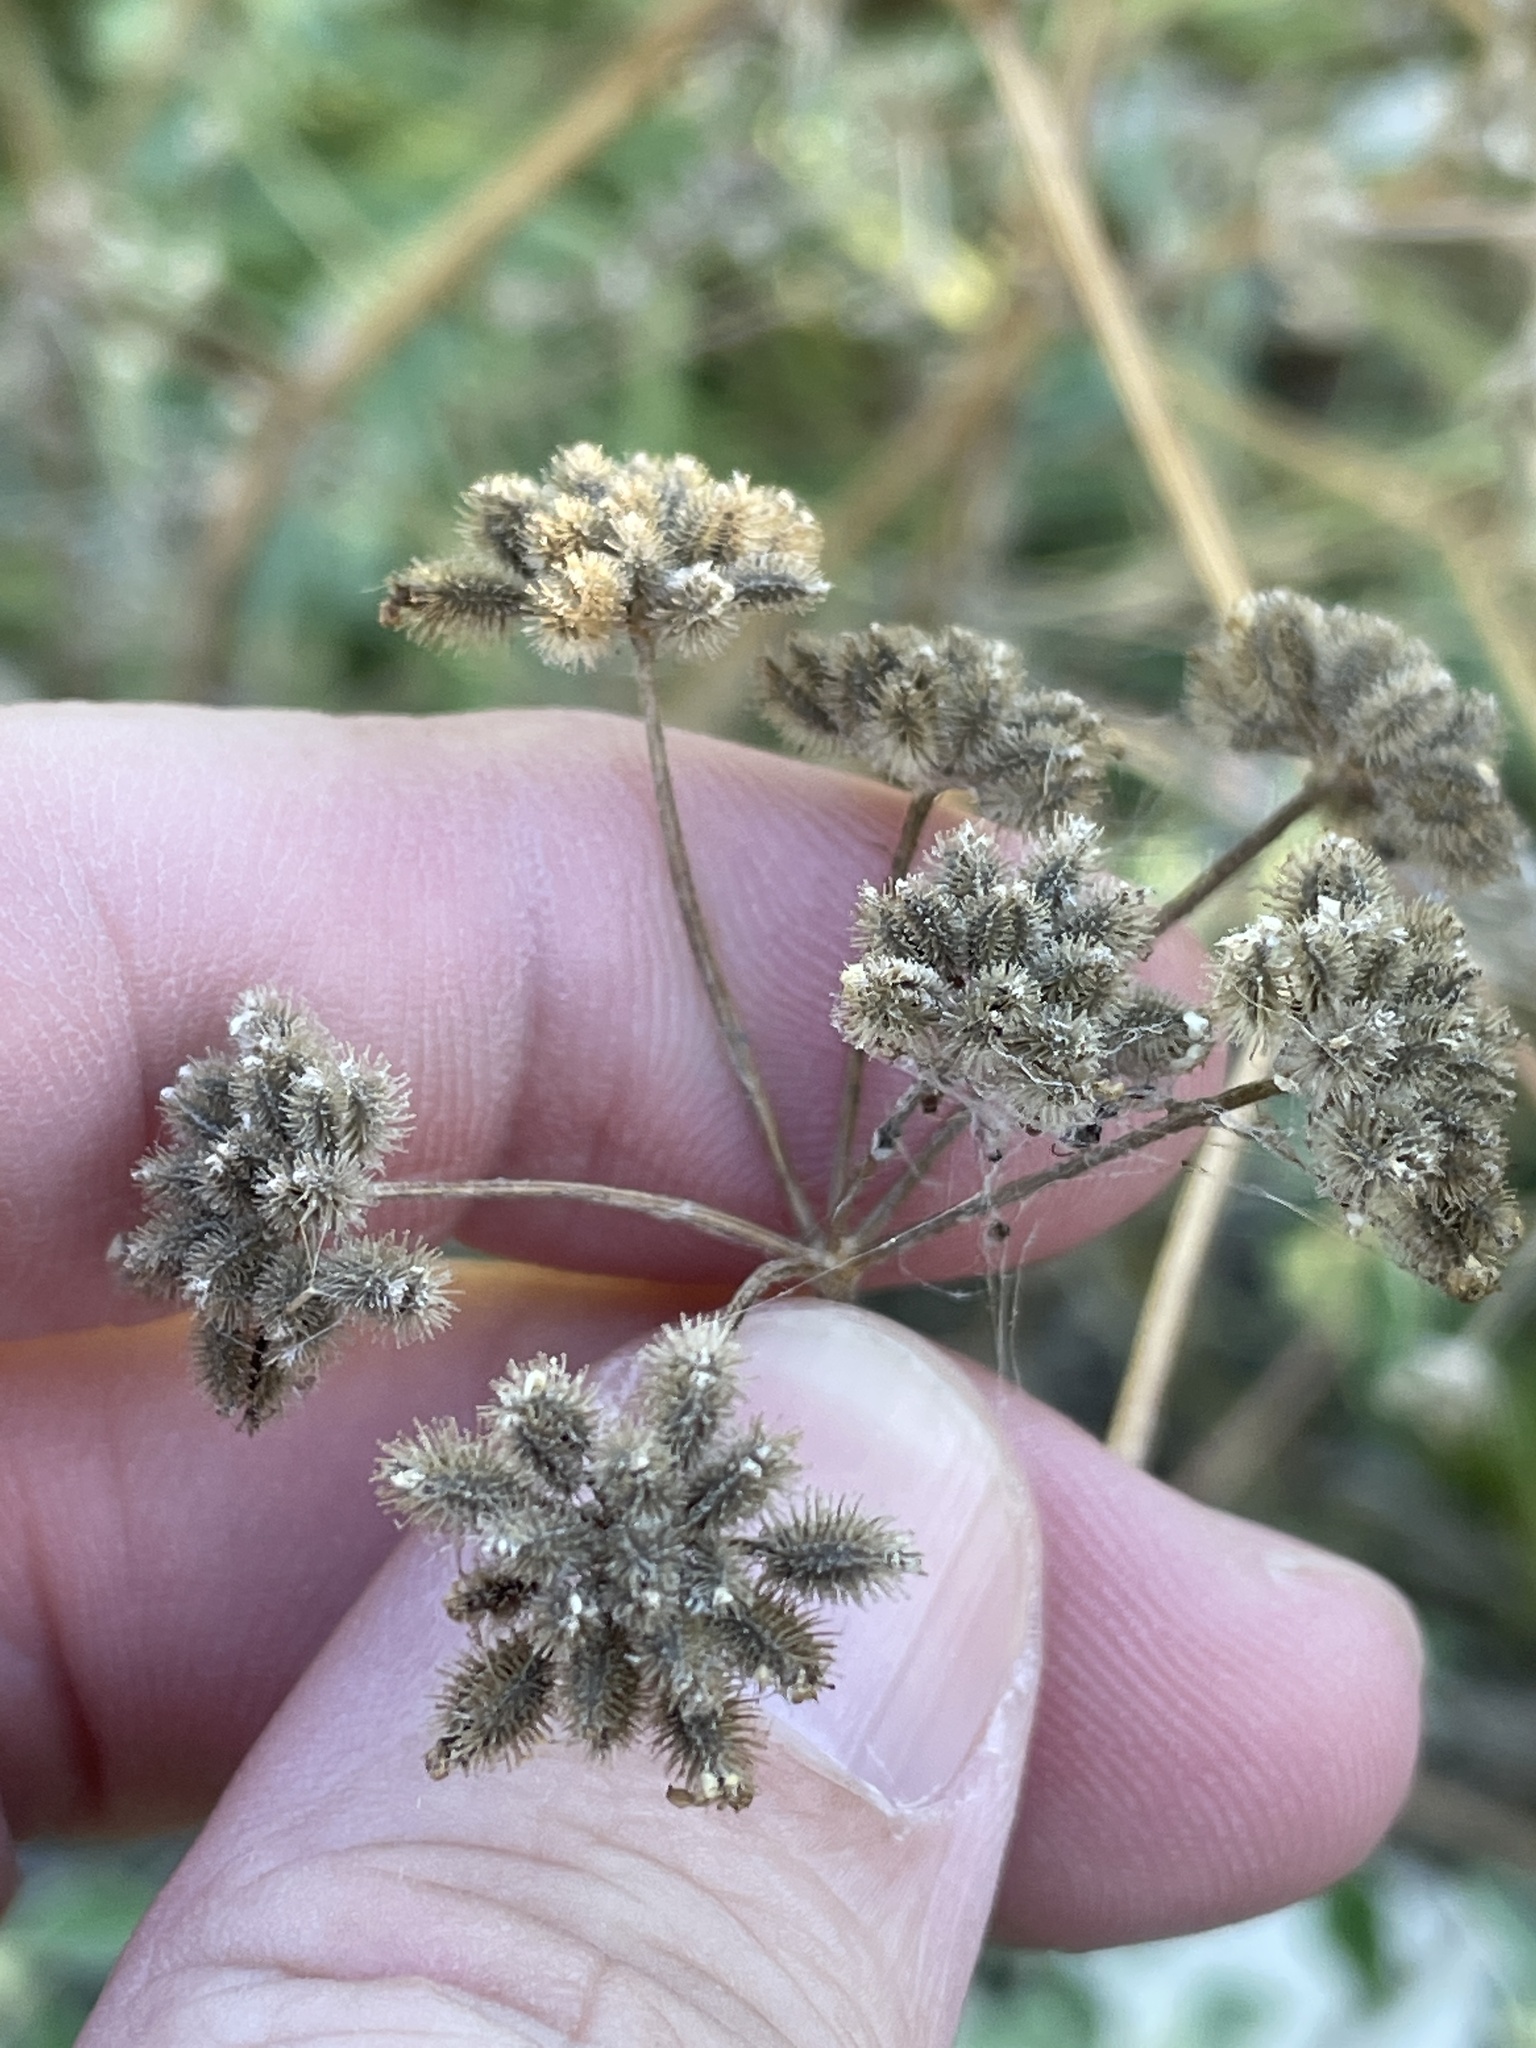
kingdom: Plantae
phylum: Tracheophyta
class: Magnoliopsida
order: Apiales
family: Apiaceae
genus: Torilis
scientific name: Torilis arvensis
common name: Spreading hedge-parsley
